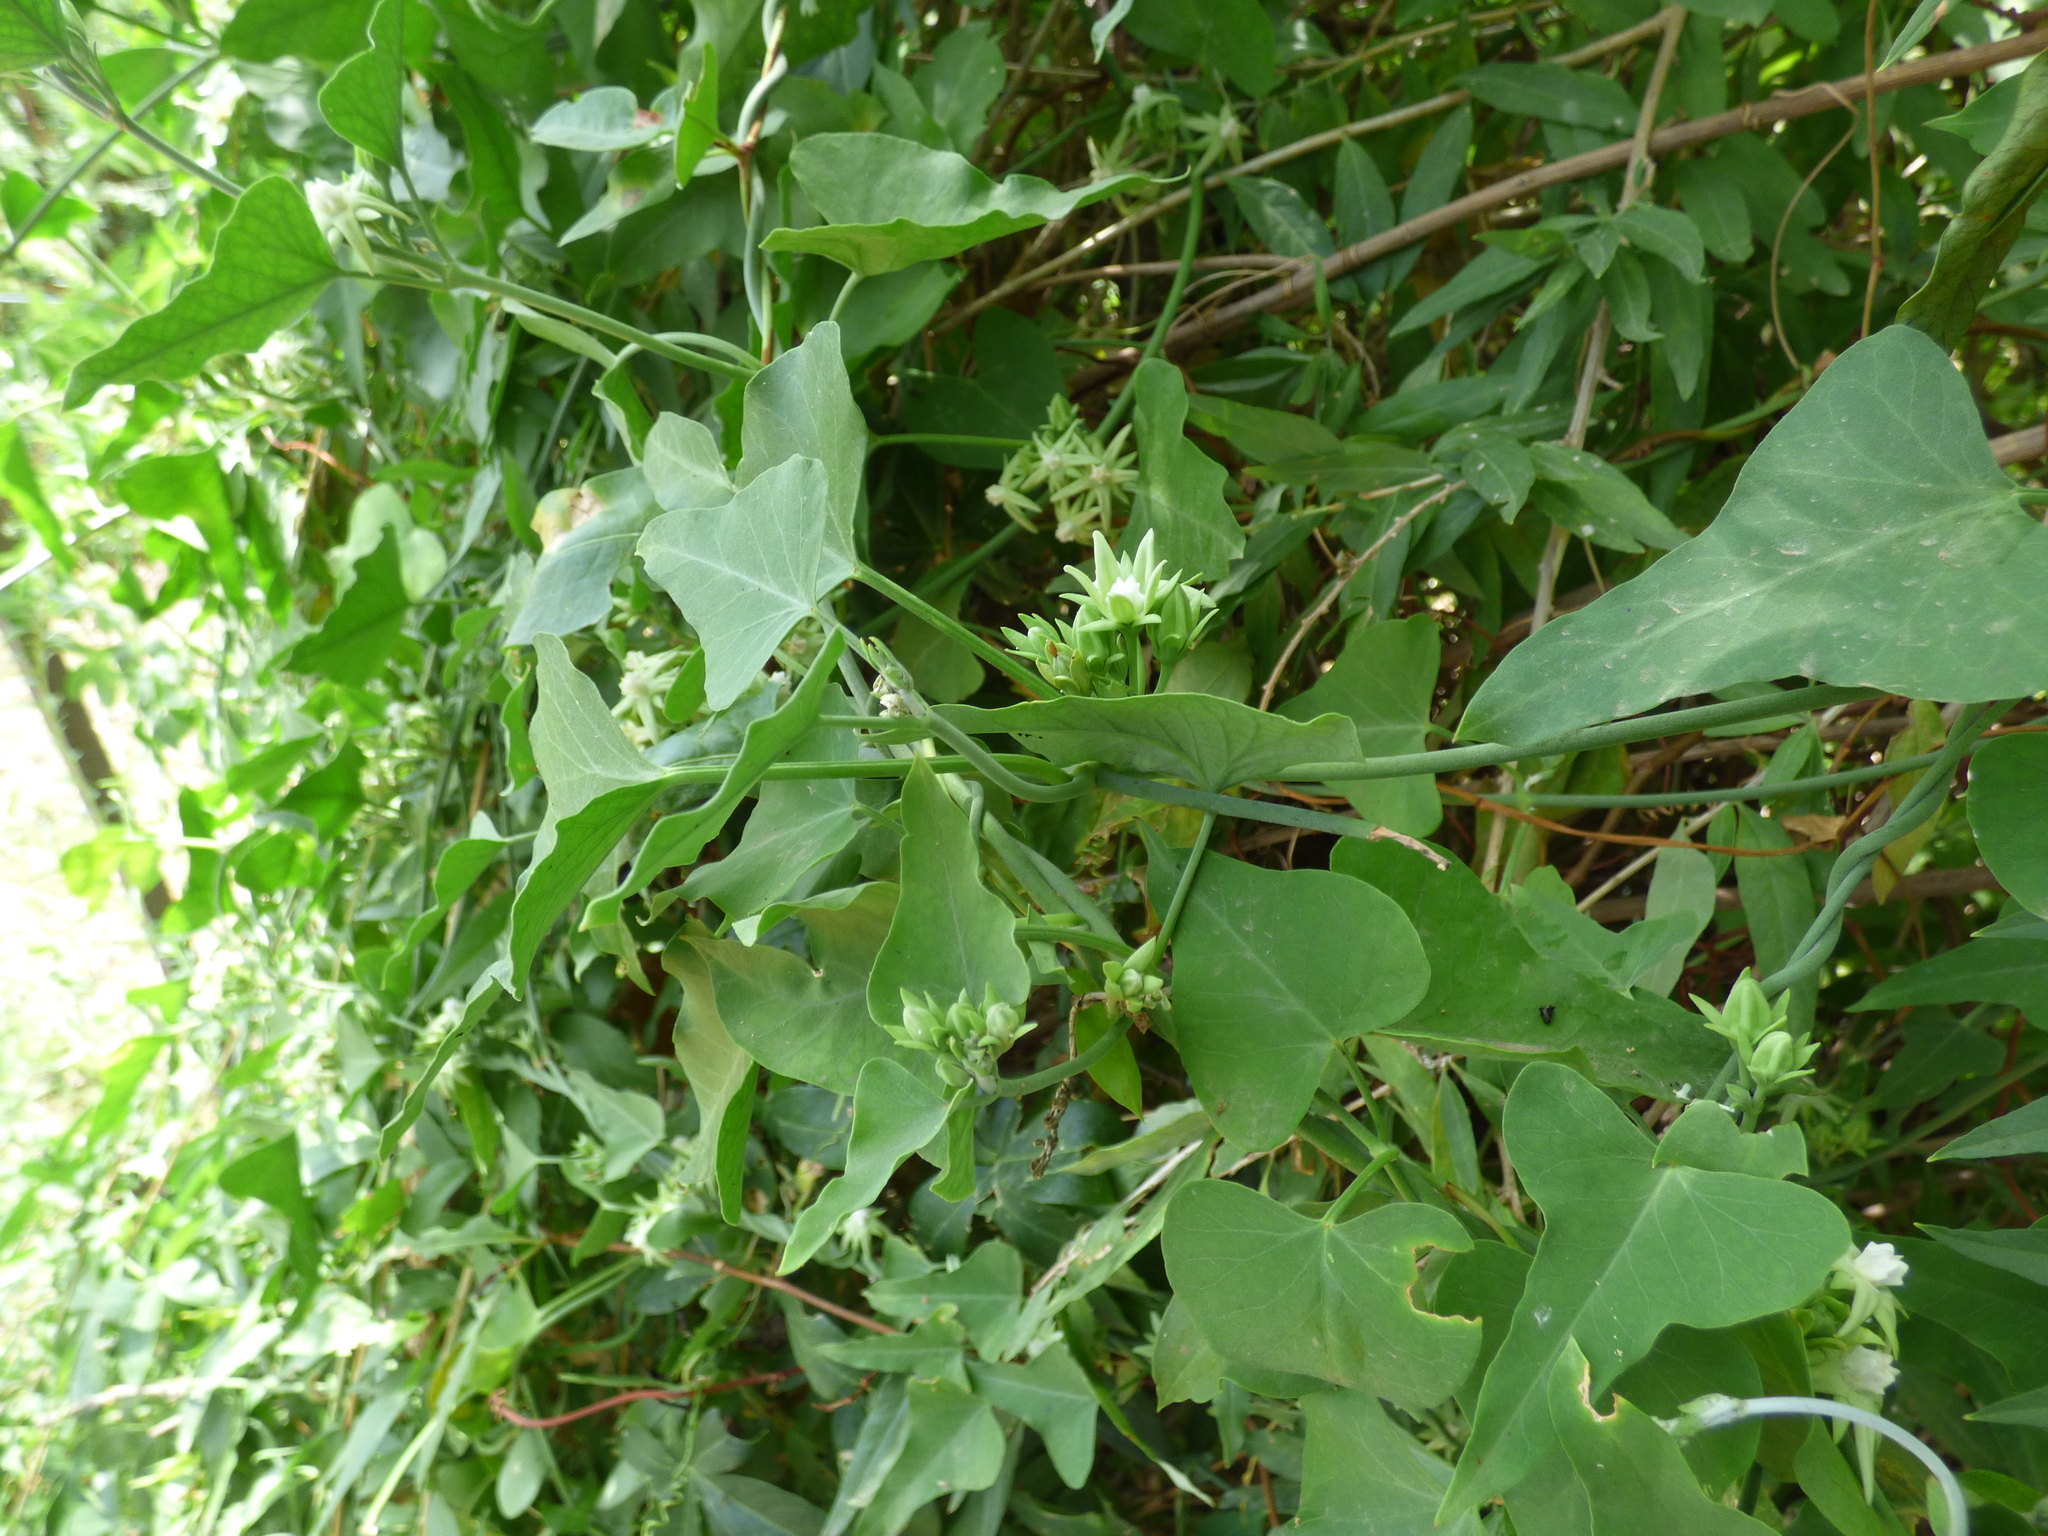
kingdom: Plantae
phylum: Tracheophyta
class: Magnoliopsida
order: Gentianales
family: Apocynaceae
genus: Araujia
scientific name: Araujia odorata
